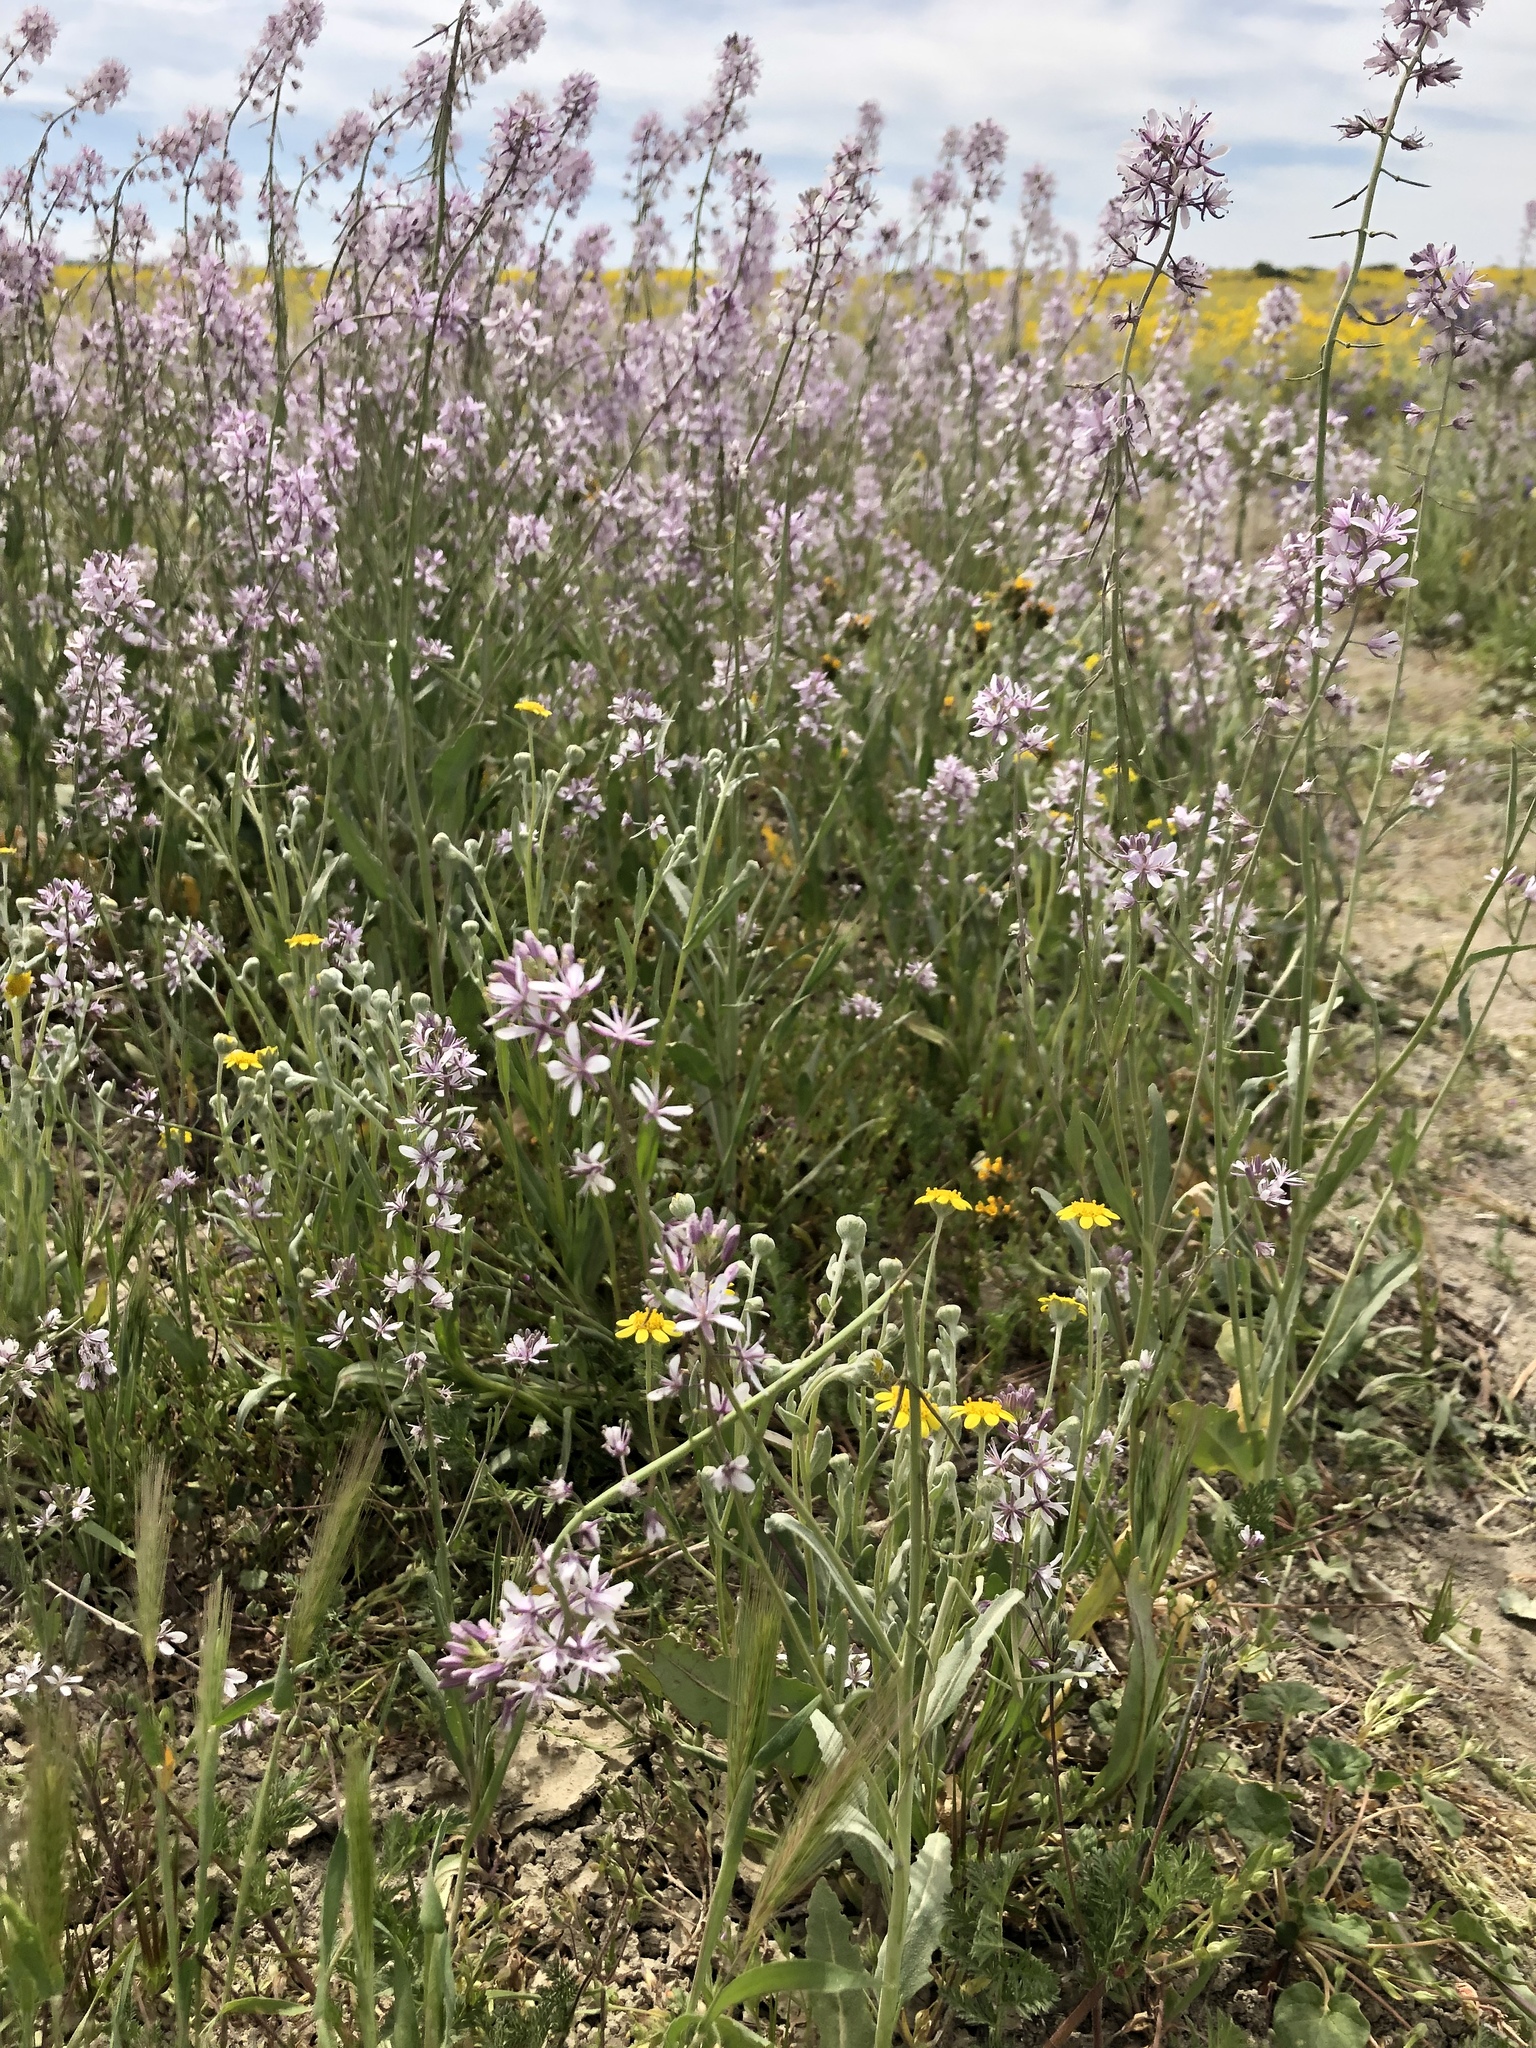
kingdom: Plantae
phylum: Tracheophyta
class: Magnoliopsida
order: Brassicales
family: Brassicaceae
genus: Streptanthus
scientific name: Streptanthus anceps
